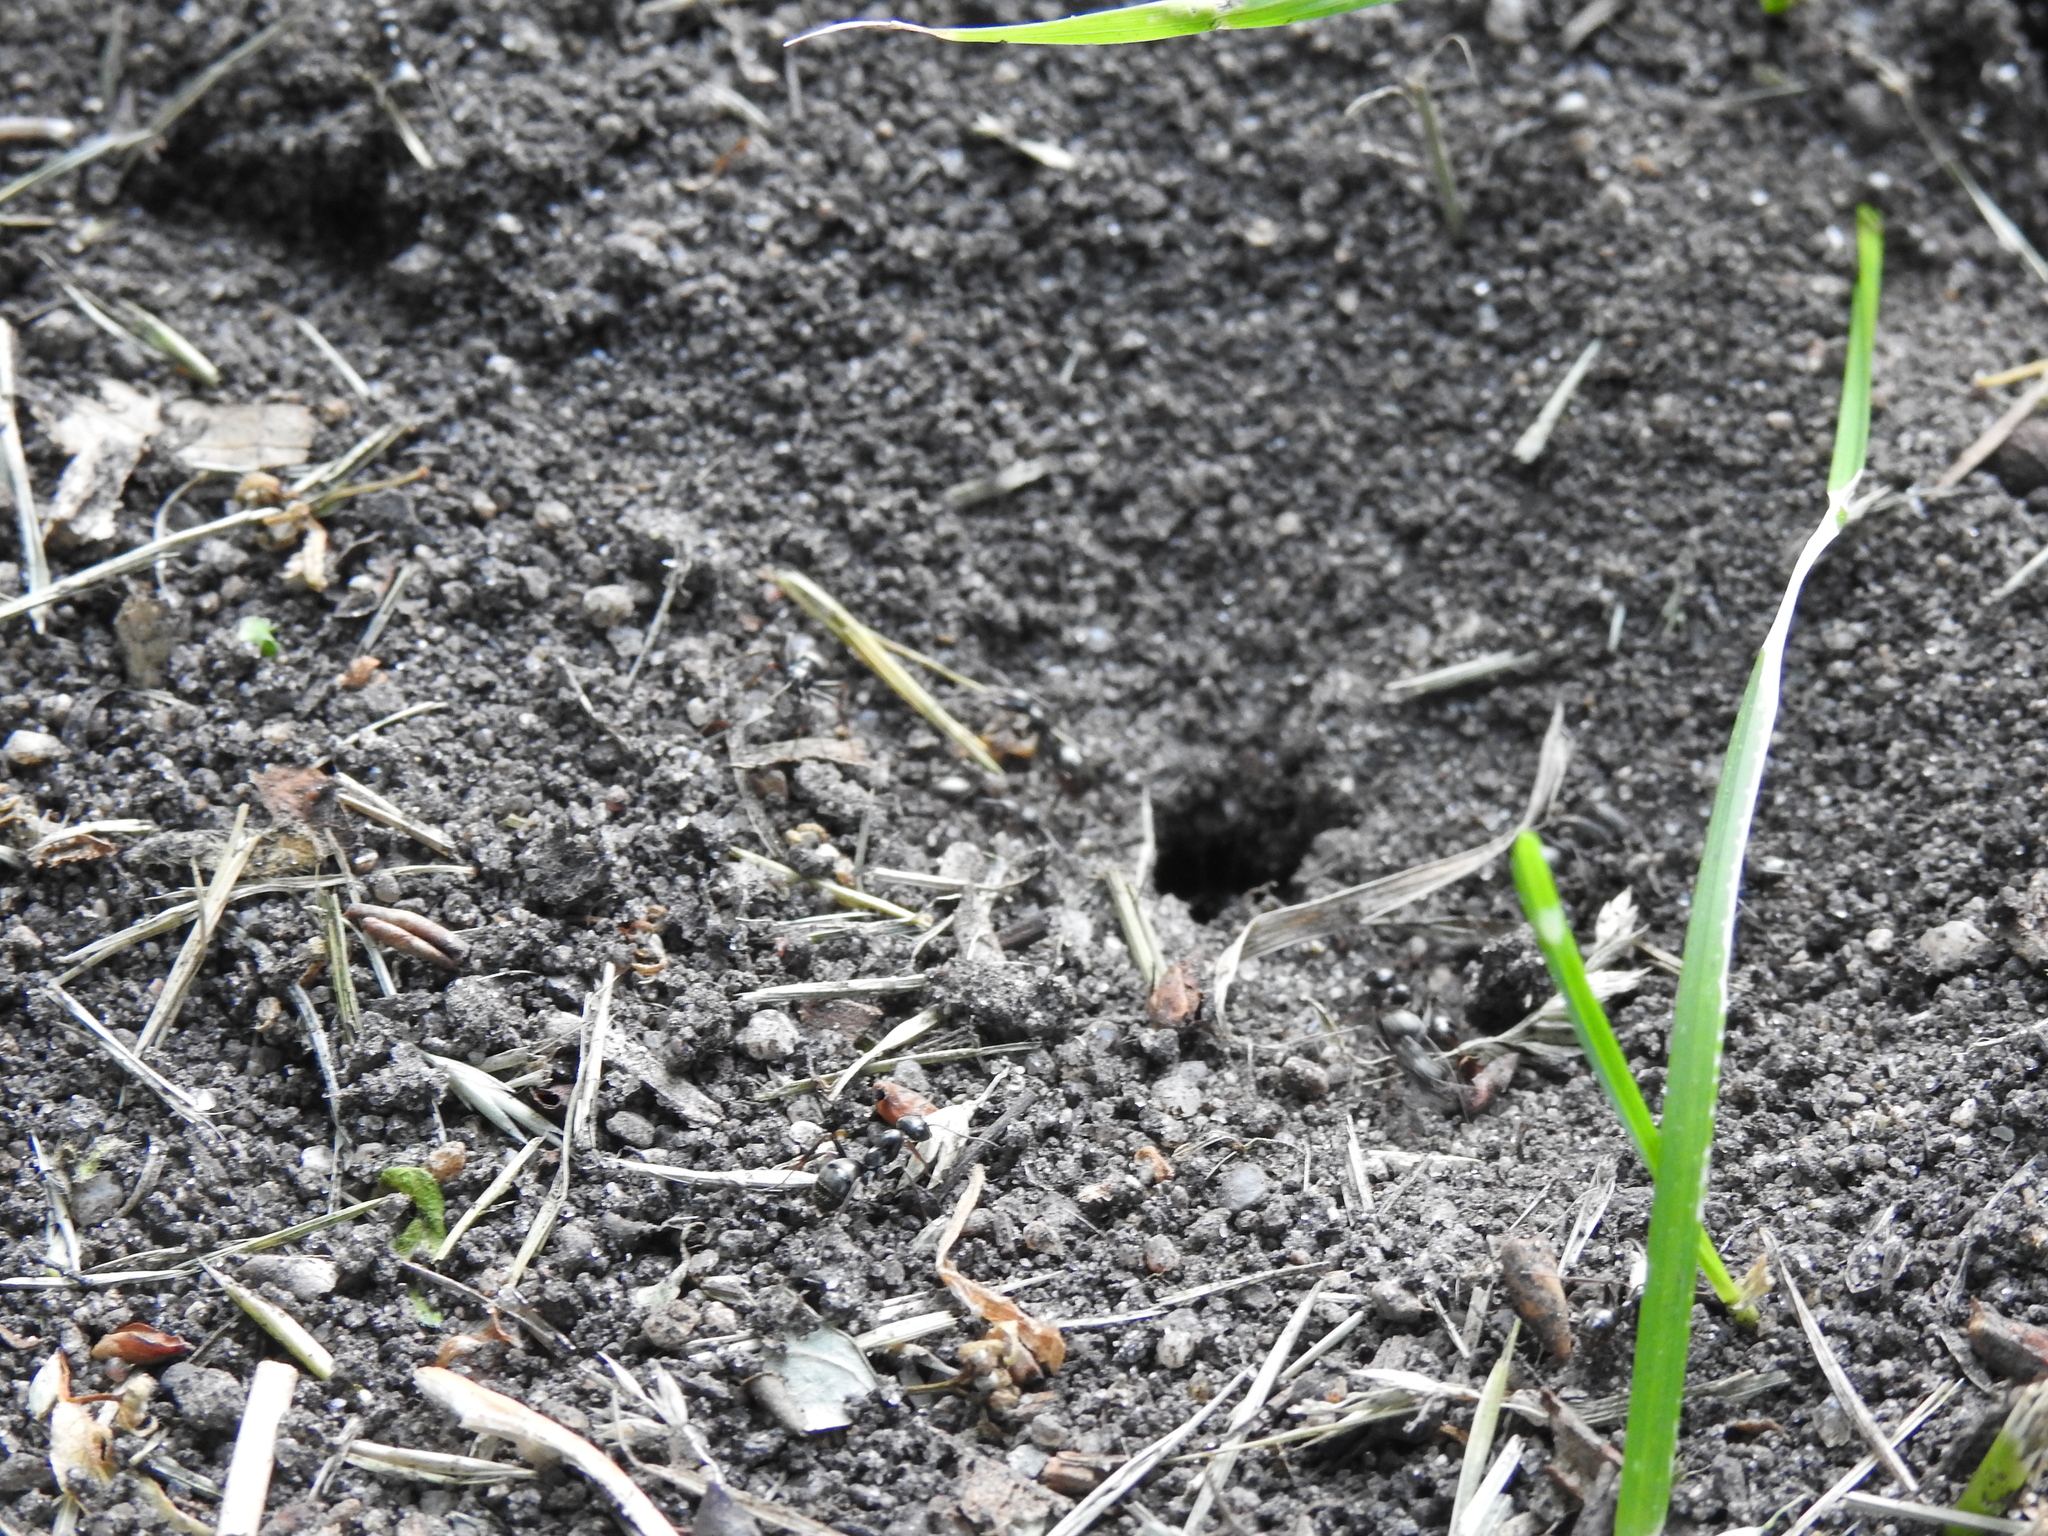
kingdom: Animalia
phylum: Arthropoda
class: Insecta
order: Hymenoptera
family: Formicidae
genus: Formica
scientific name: Formica
